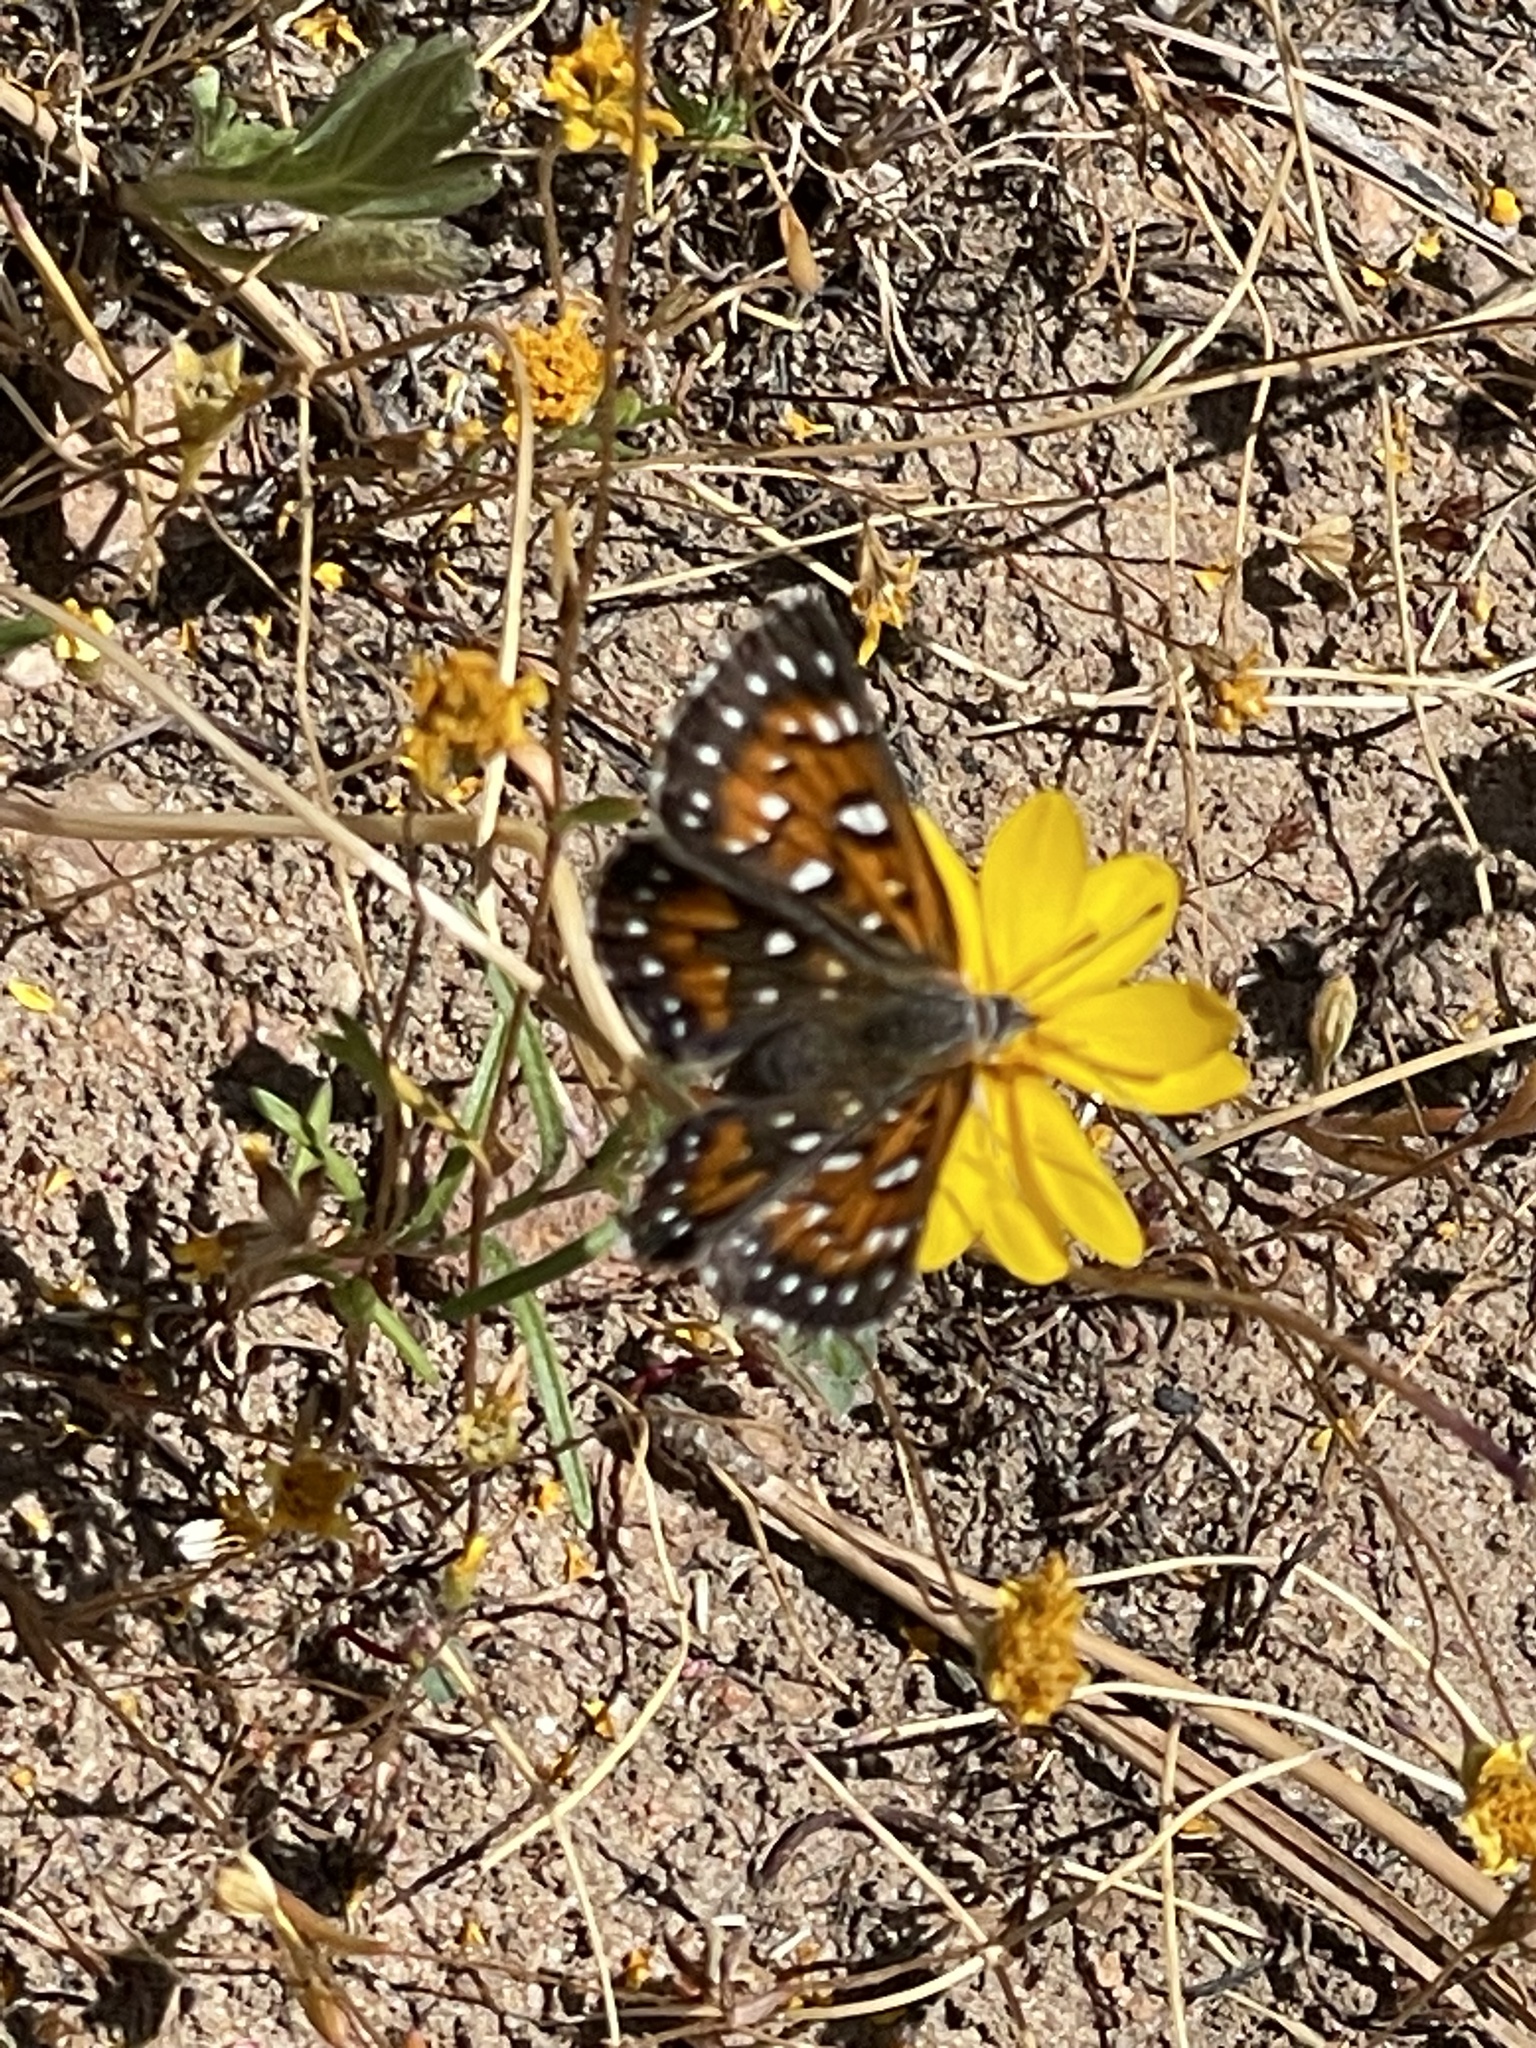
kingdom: Animalia
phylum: Arthropoda
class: Insecta
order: Lepidoptera
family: Riodinidae
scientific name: Riodinidae
